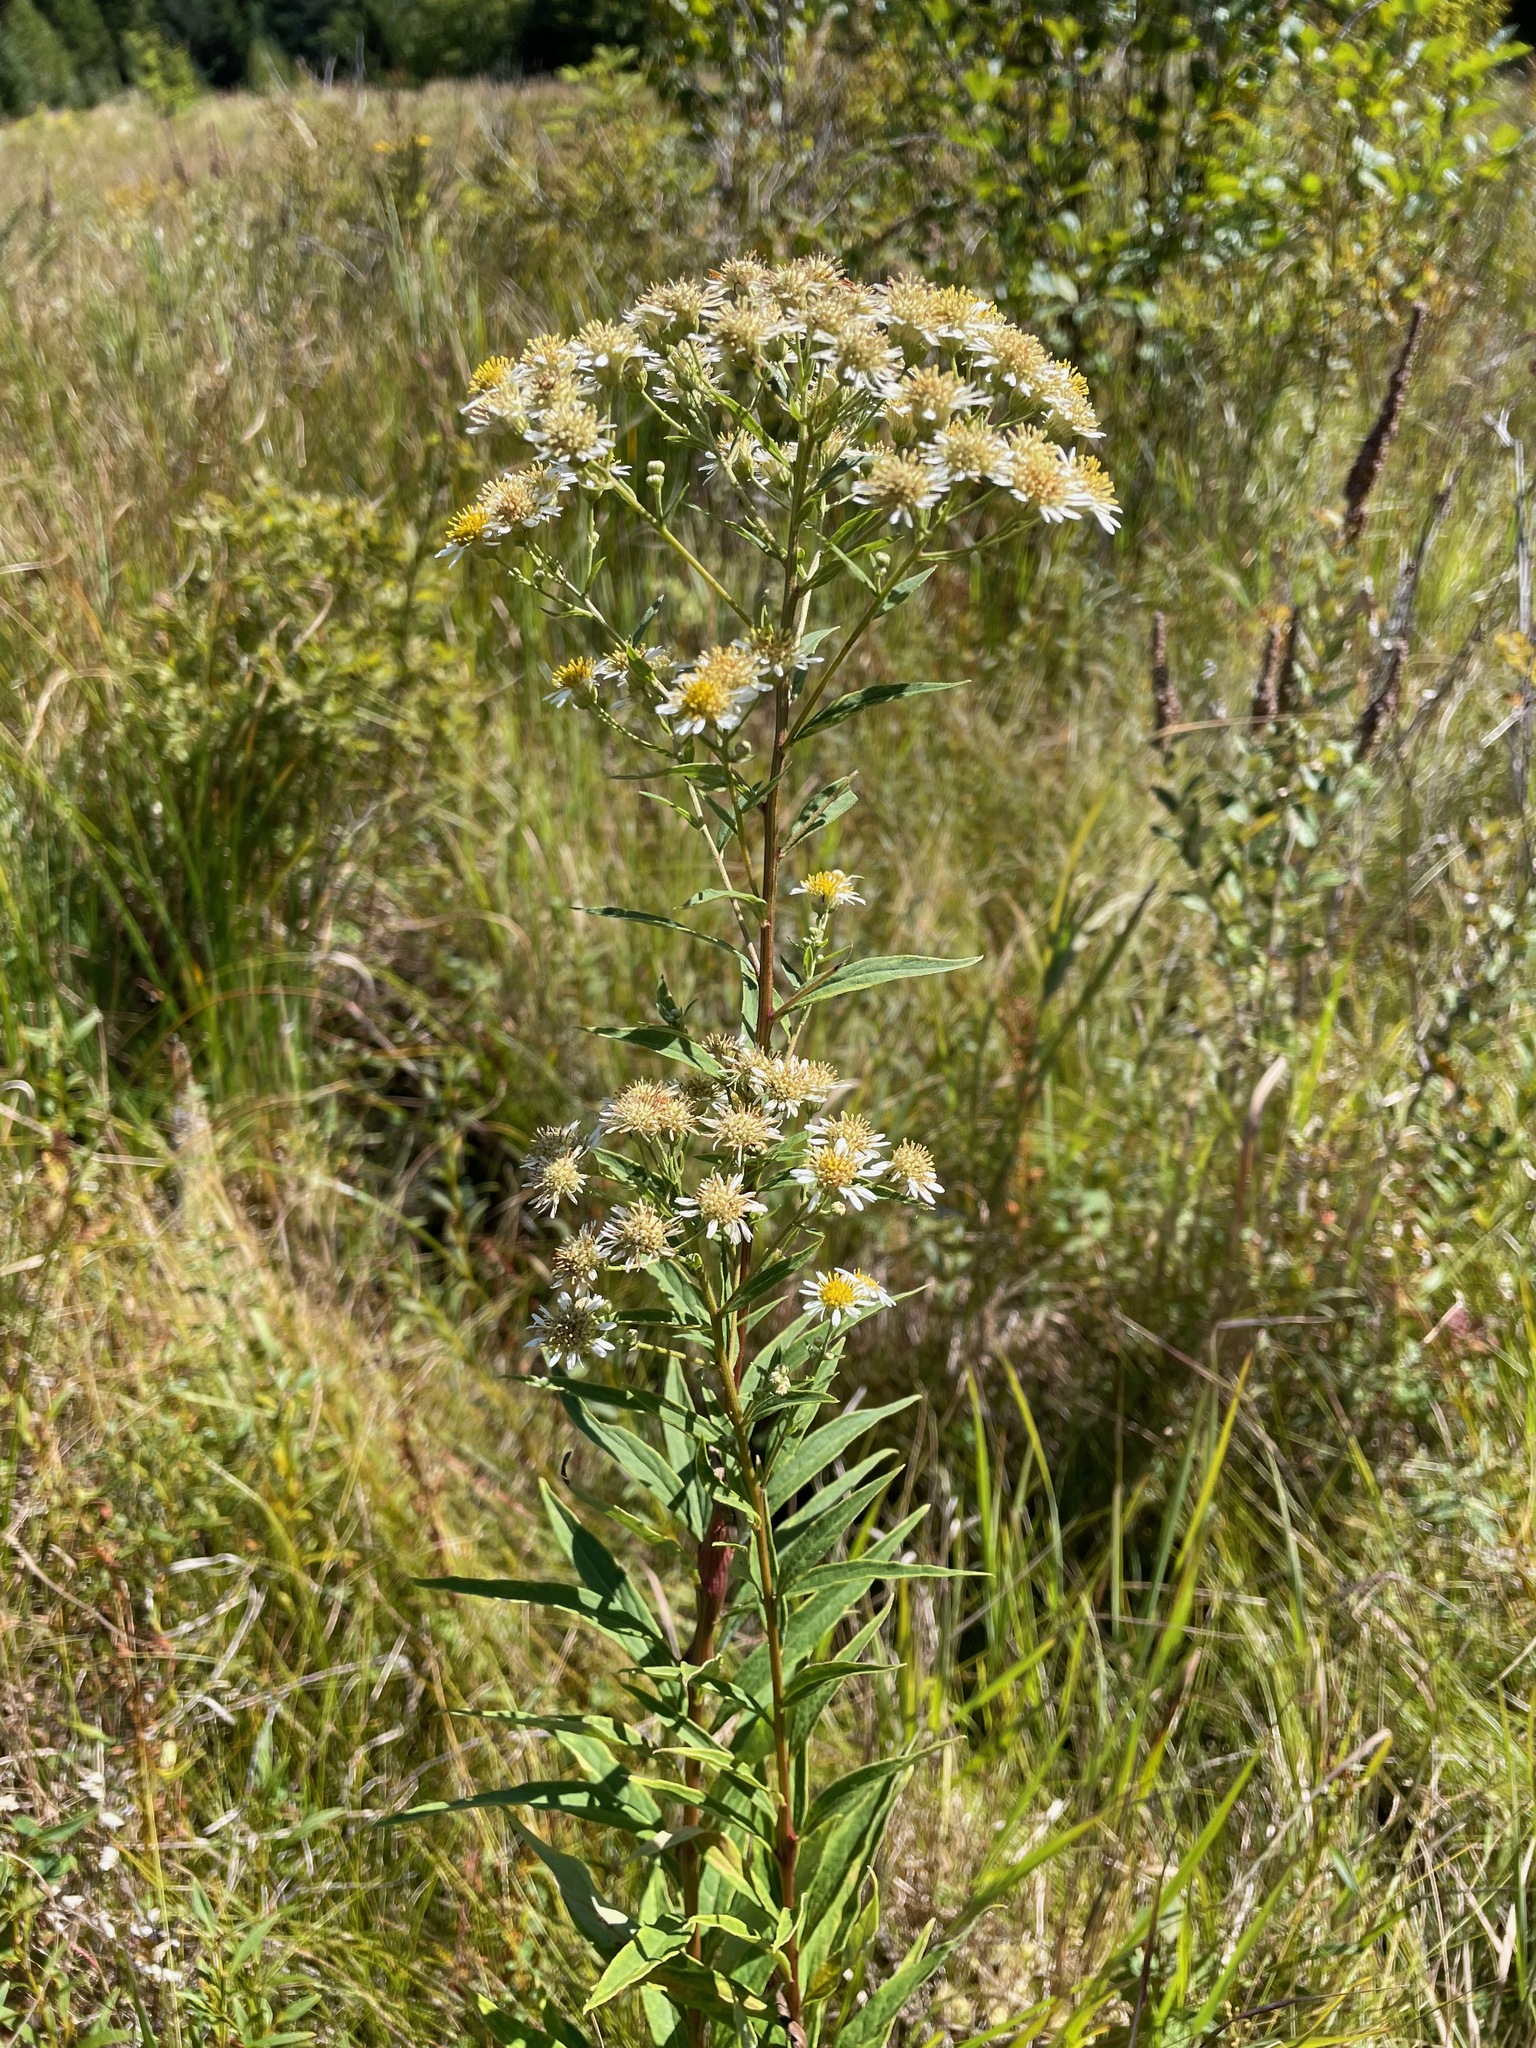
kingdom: Plantae
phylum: Tracheophyta
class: Magnoliopsida
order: Asterales
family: Asteraceae
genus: Doellingeria
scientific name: Doellingeria umbellata
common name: Flat-top white aster
